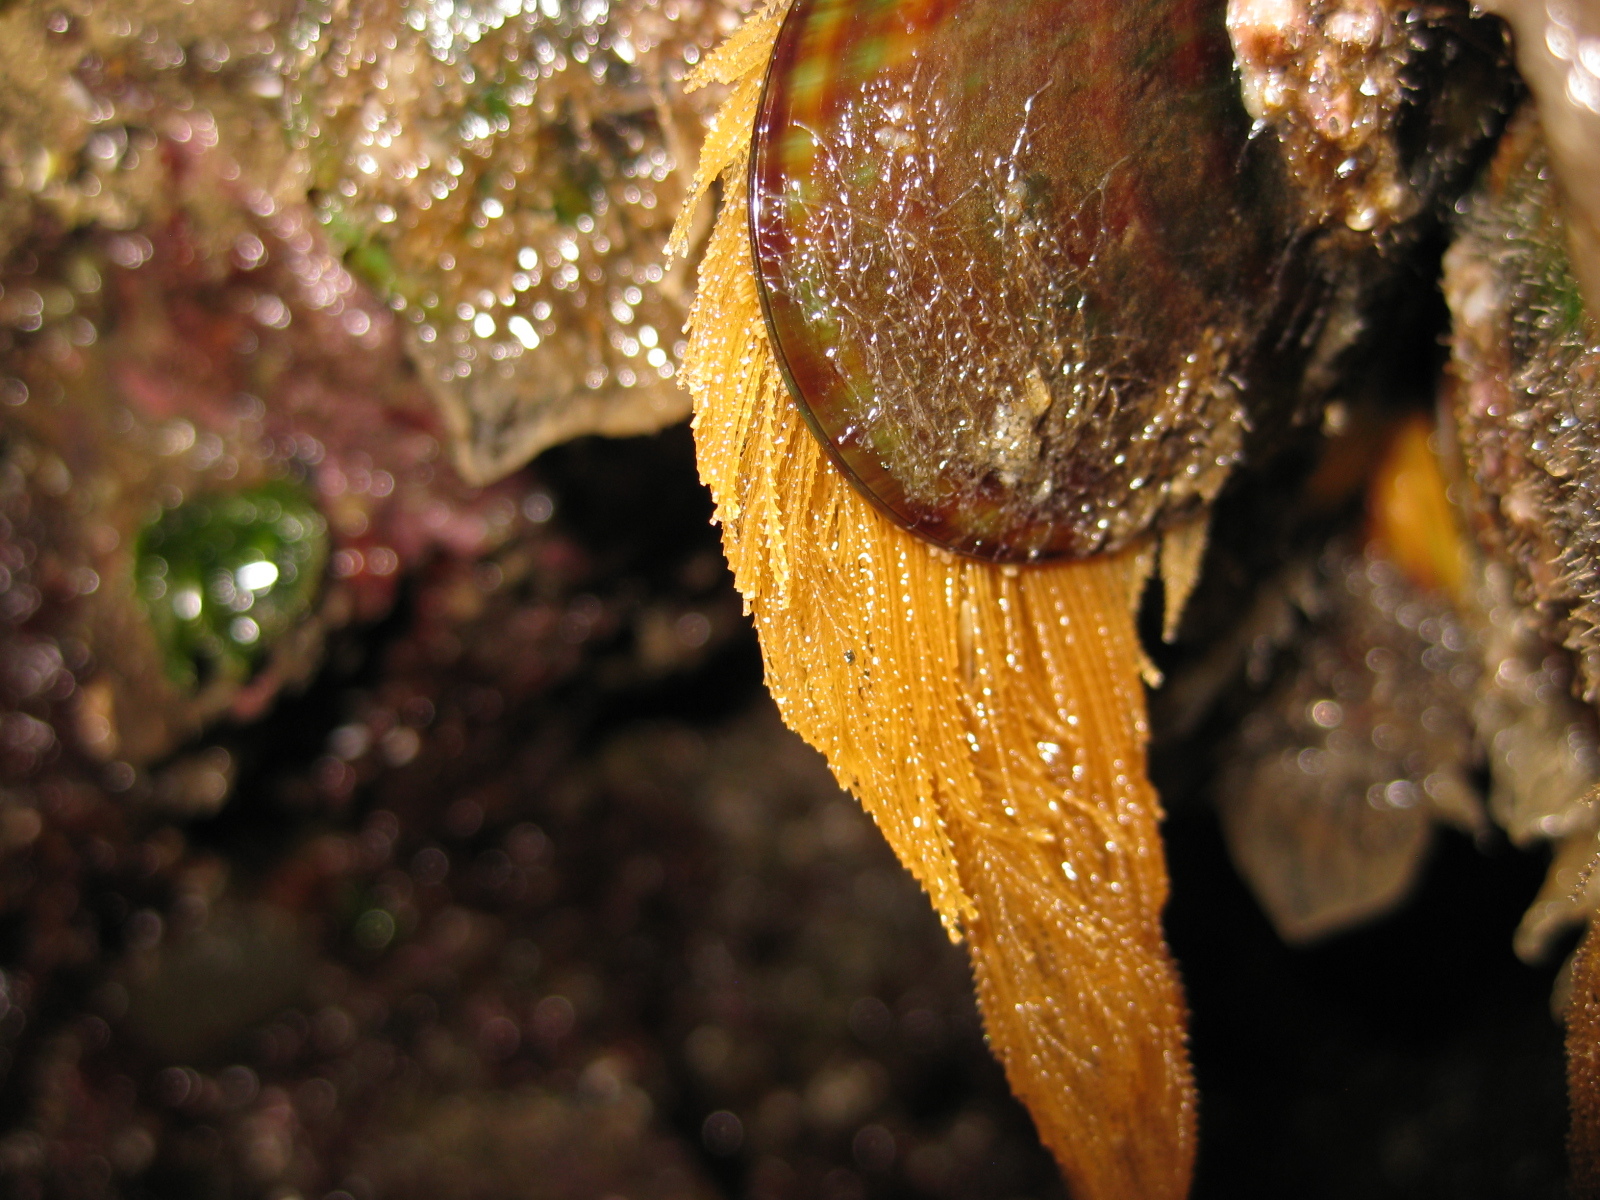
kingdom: Animalia
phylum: Cnidaria
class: Hydrozoa
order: Leptothecata
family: Sertulariidae
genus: Amphisbetia
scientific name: Amphisbetia bispinosa
